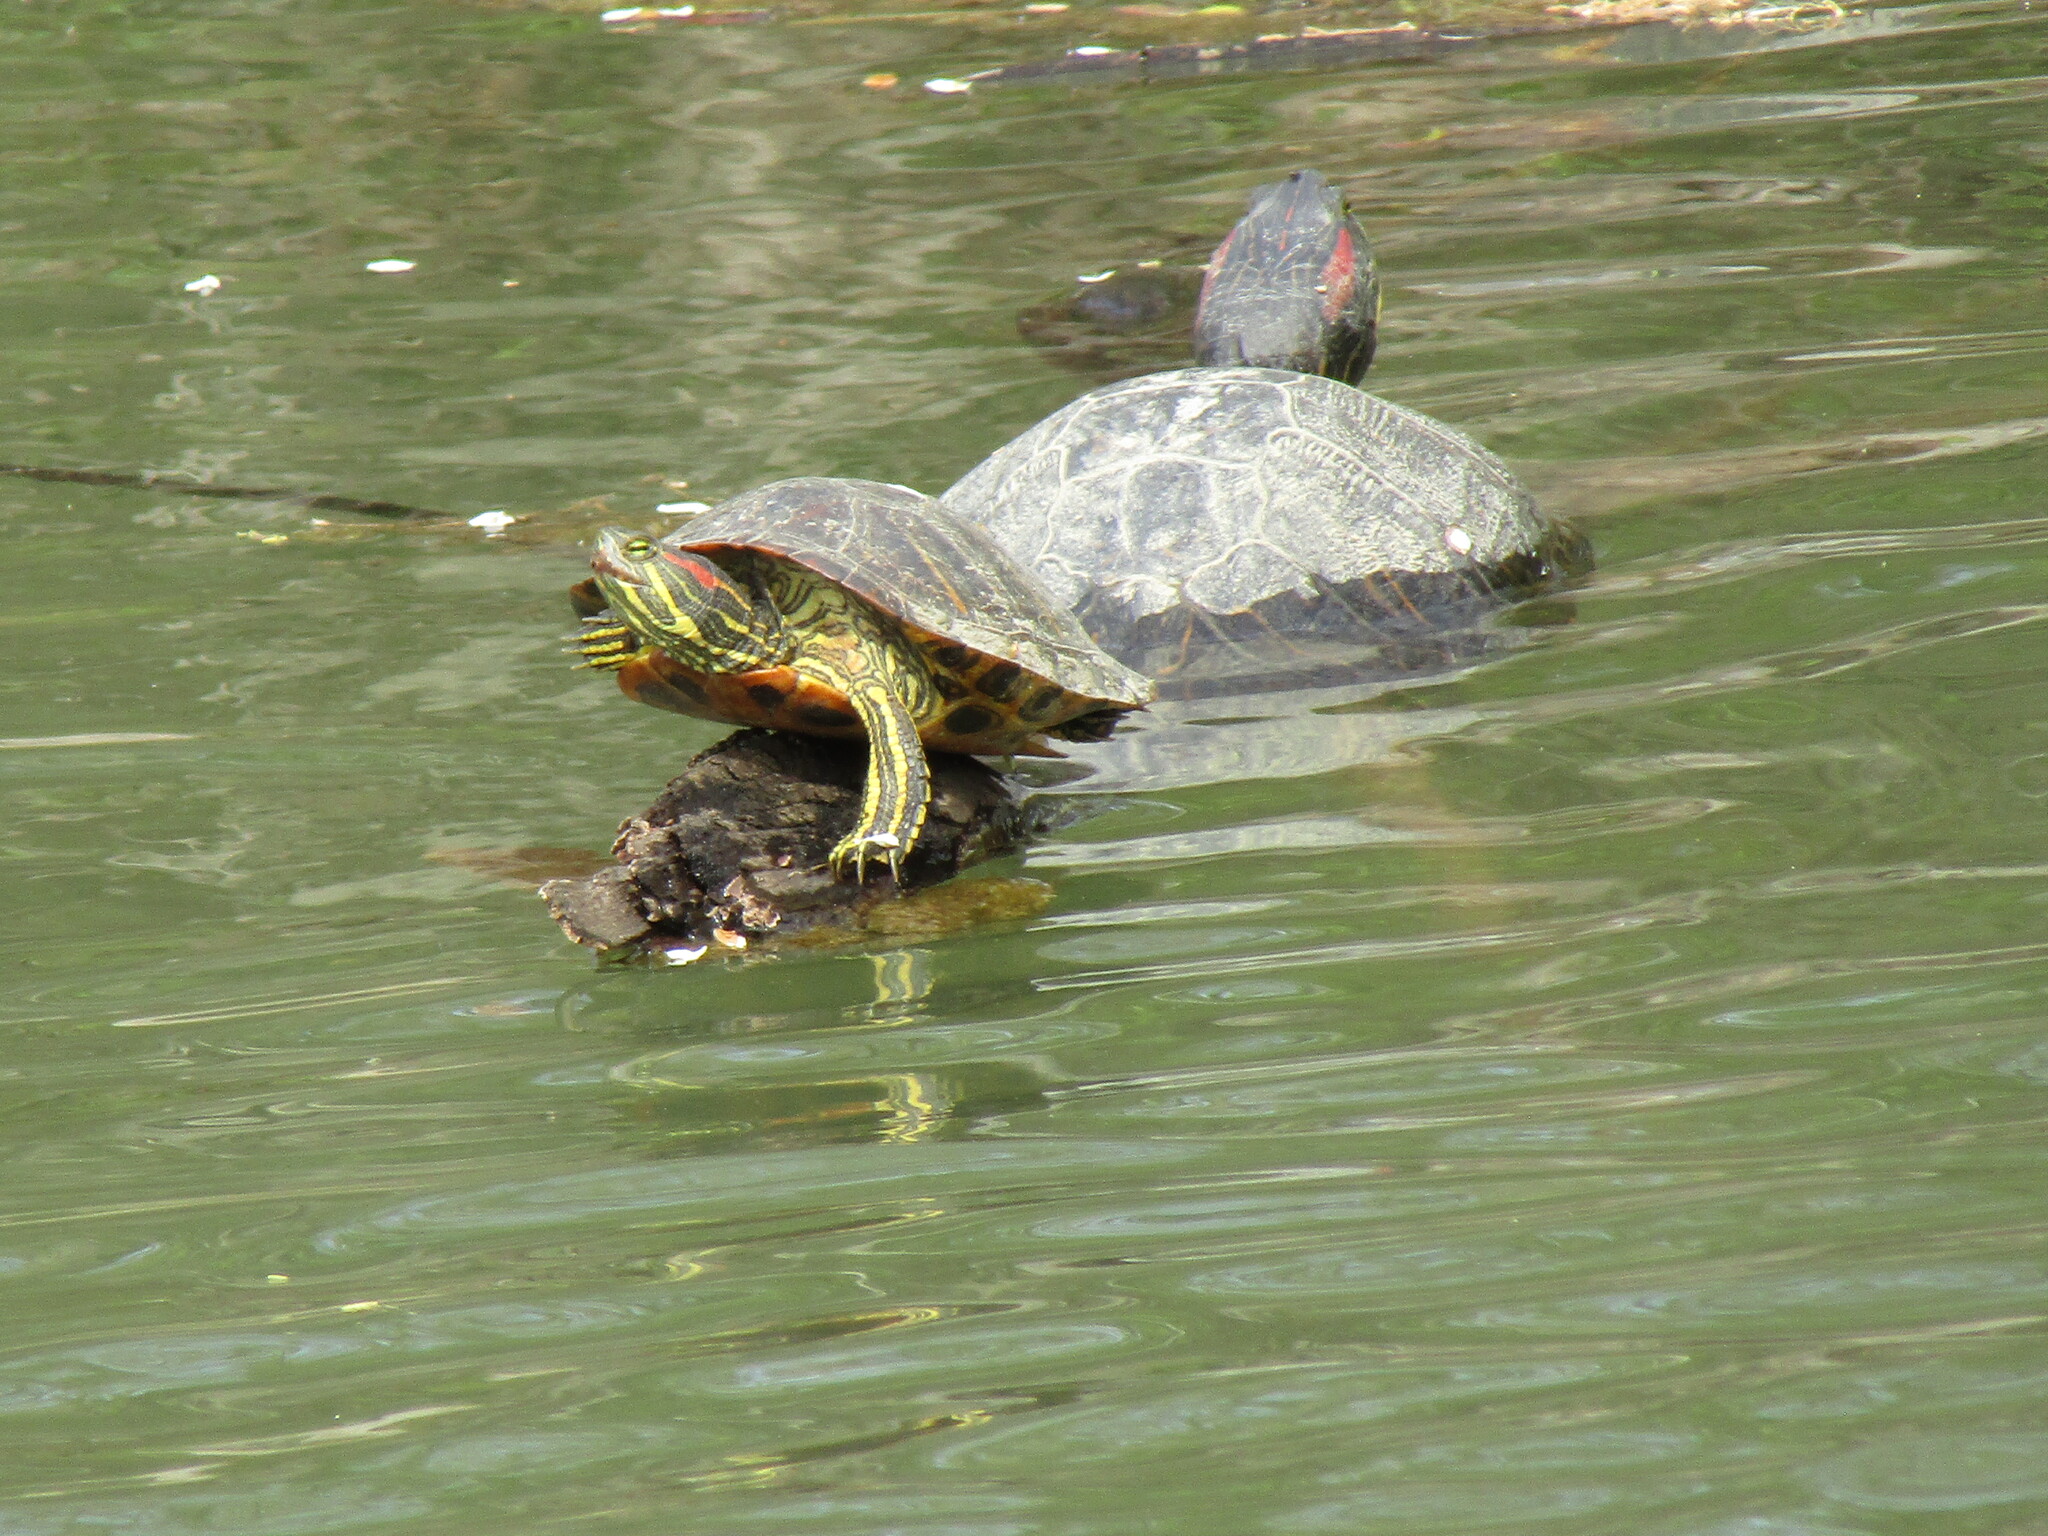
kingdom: Animalia
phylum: Chordata
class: Testudines
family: Emydidae
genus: Trachemys
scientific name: Trachemys scripta
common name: Slider
